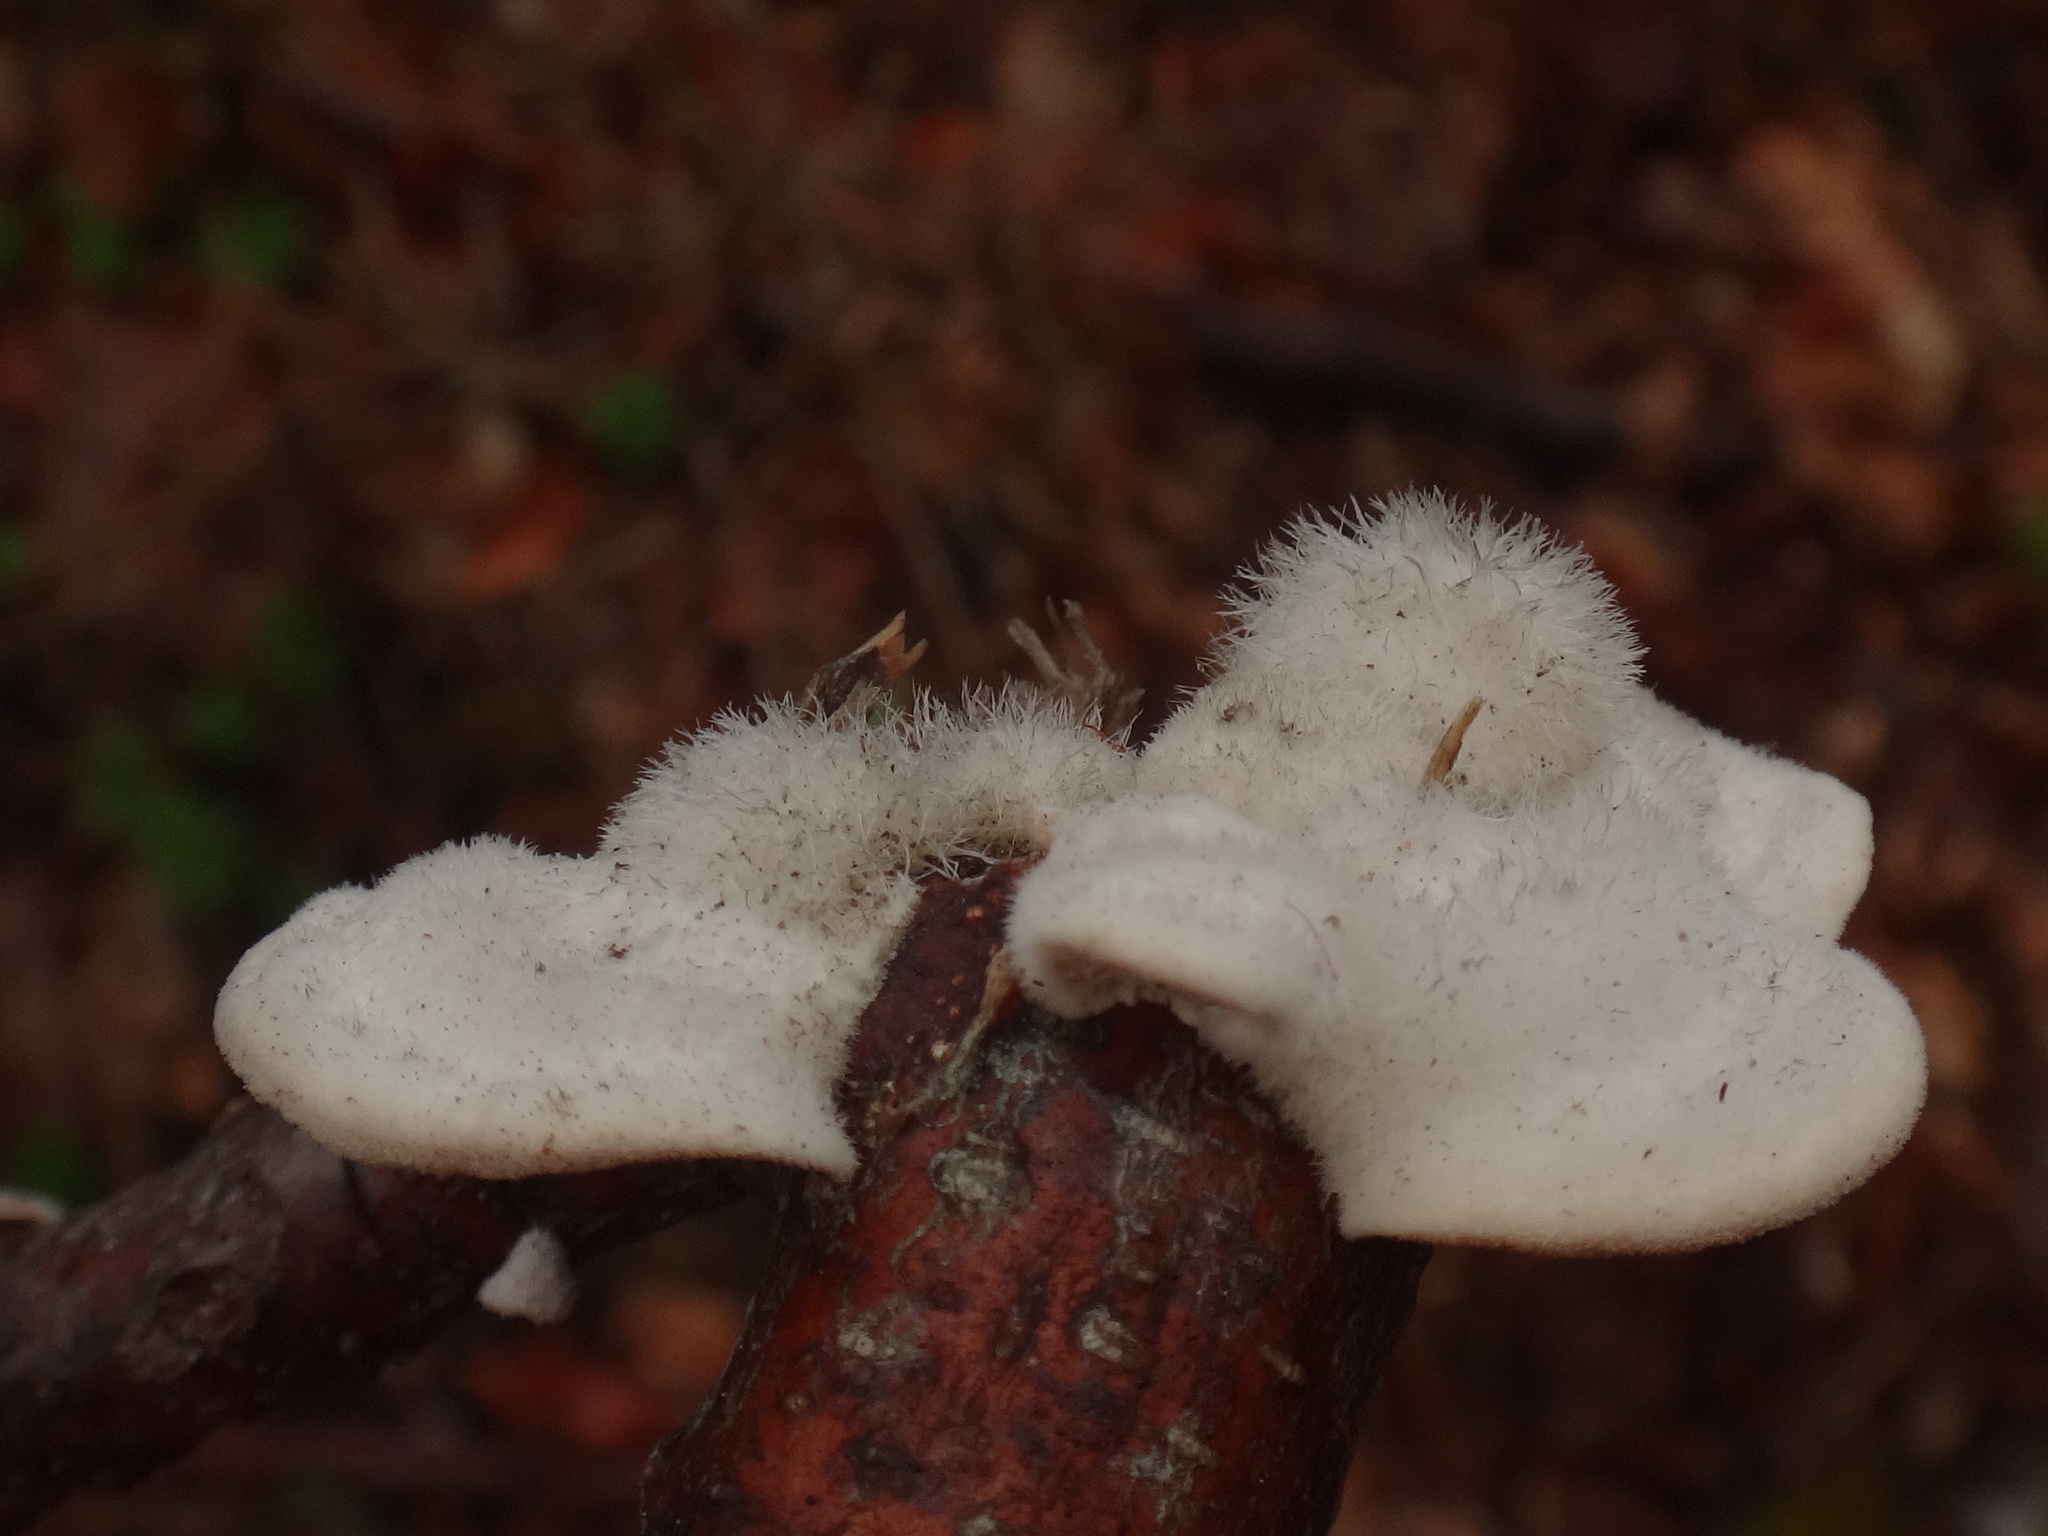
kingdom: Fungi
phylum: Basidiomycota
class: Agaricomycetes
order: Polyporales
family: Polyporaceae
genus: Trametes
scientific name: Trametes hirsuta
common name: Hairy bracket
